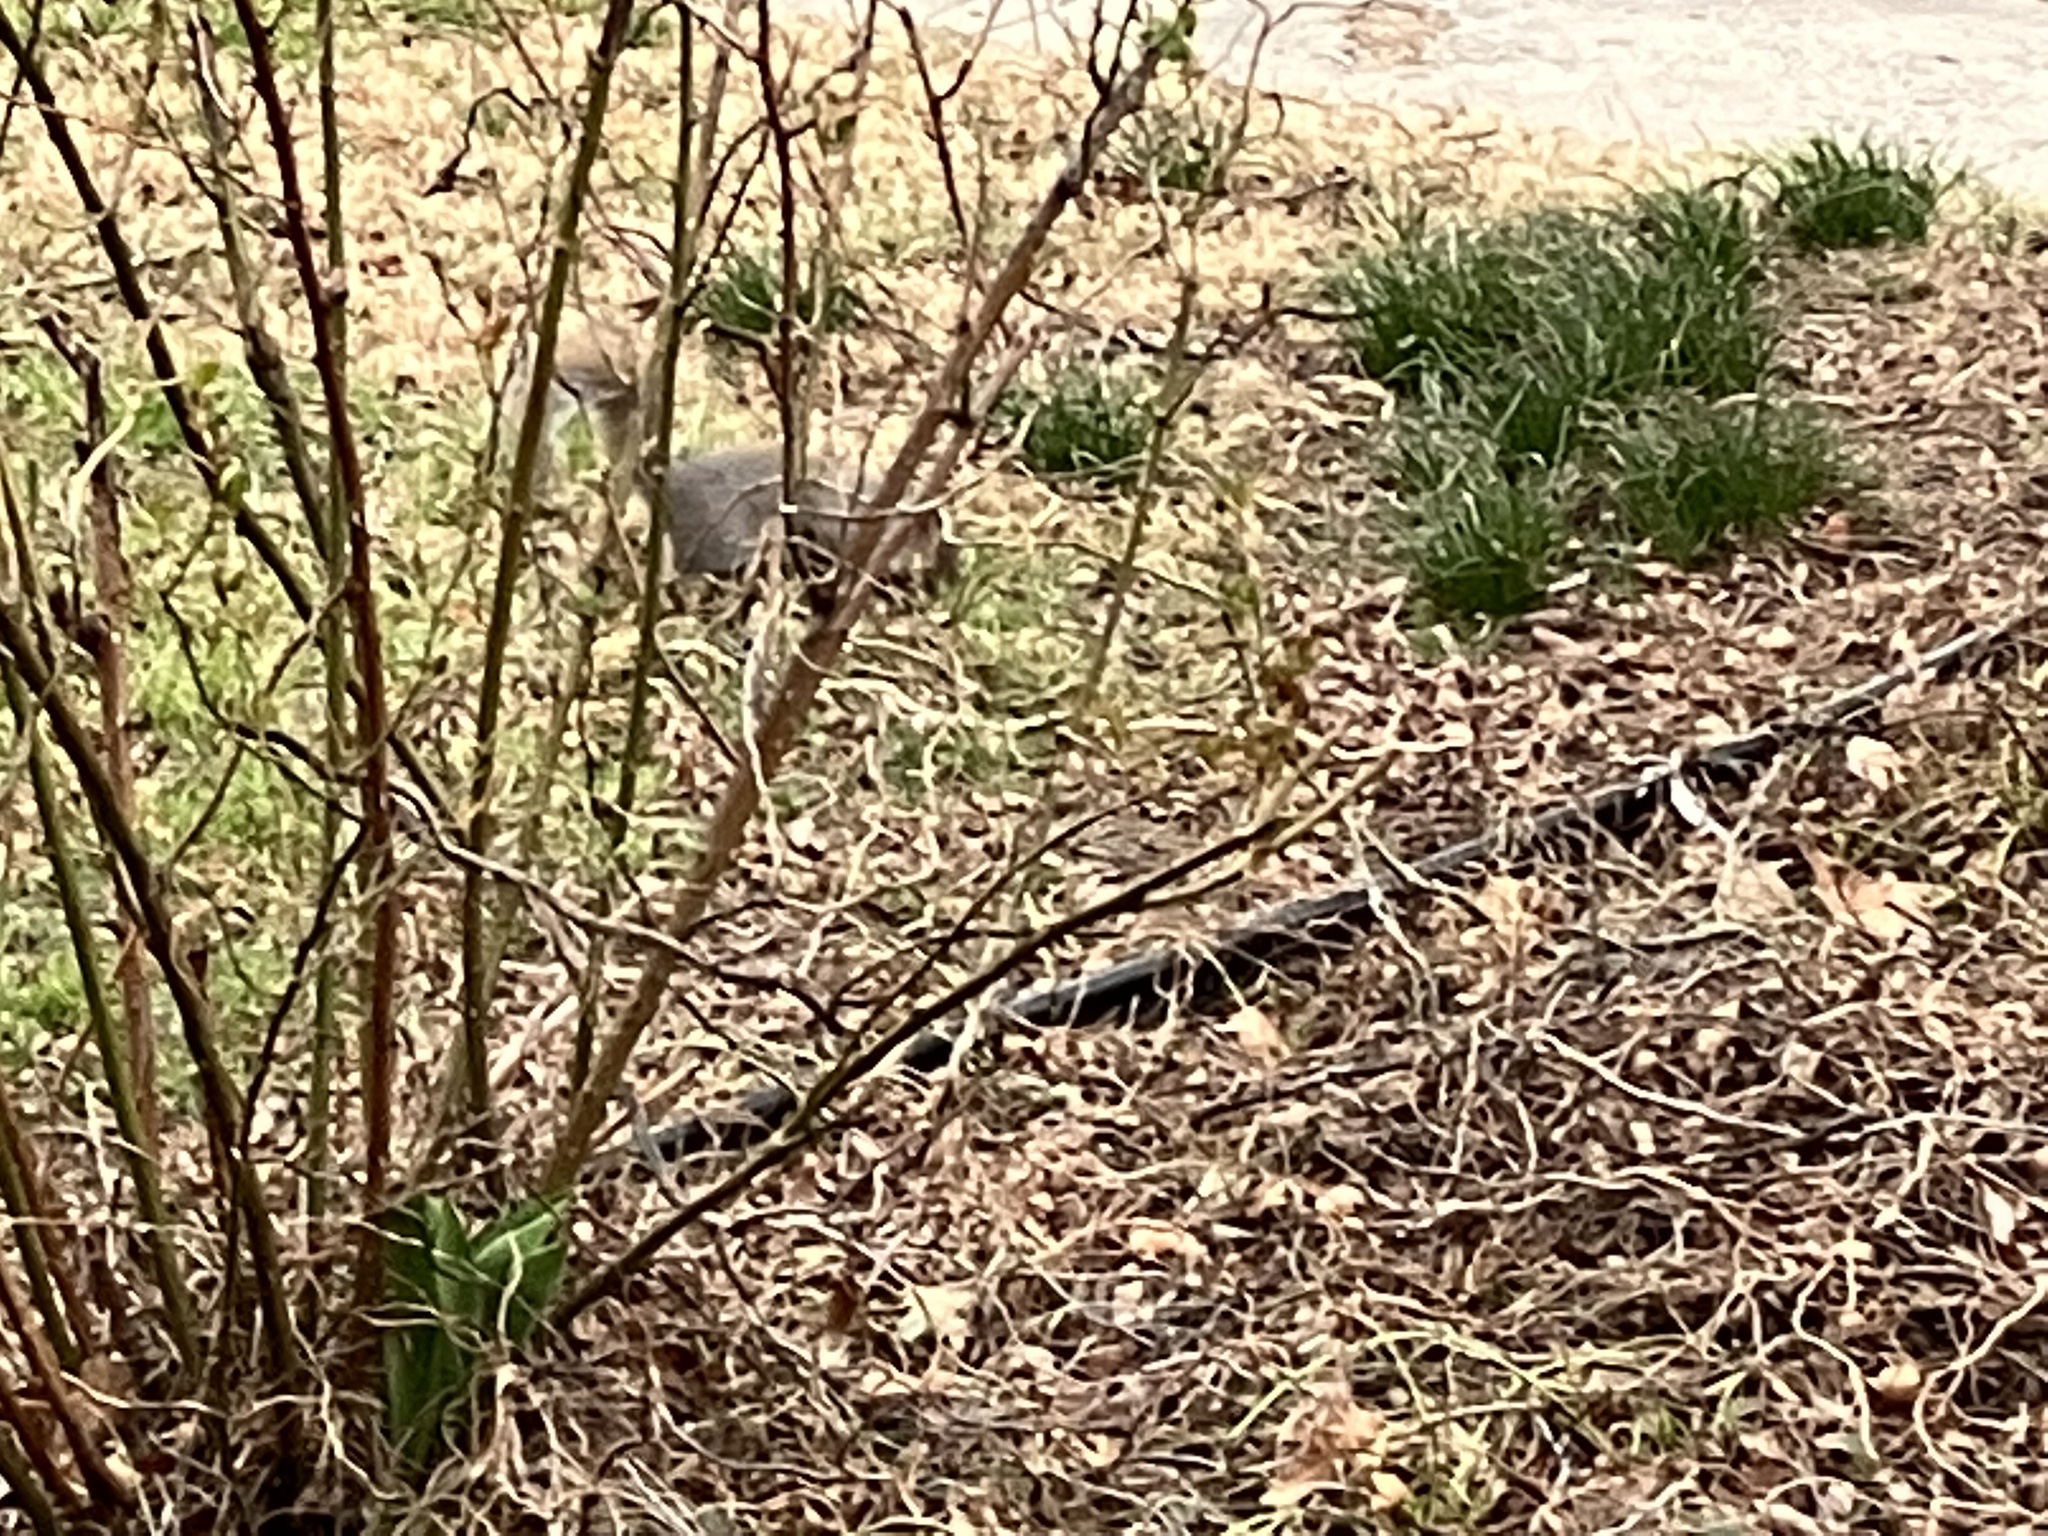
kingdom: Animalia
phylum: Chordata
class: Mammalia
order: Rodentia
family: Sciuridae
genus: Sciurus
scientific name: Sciurus carolinensis
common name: Eastern gray squirrel
